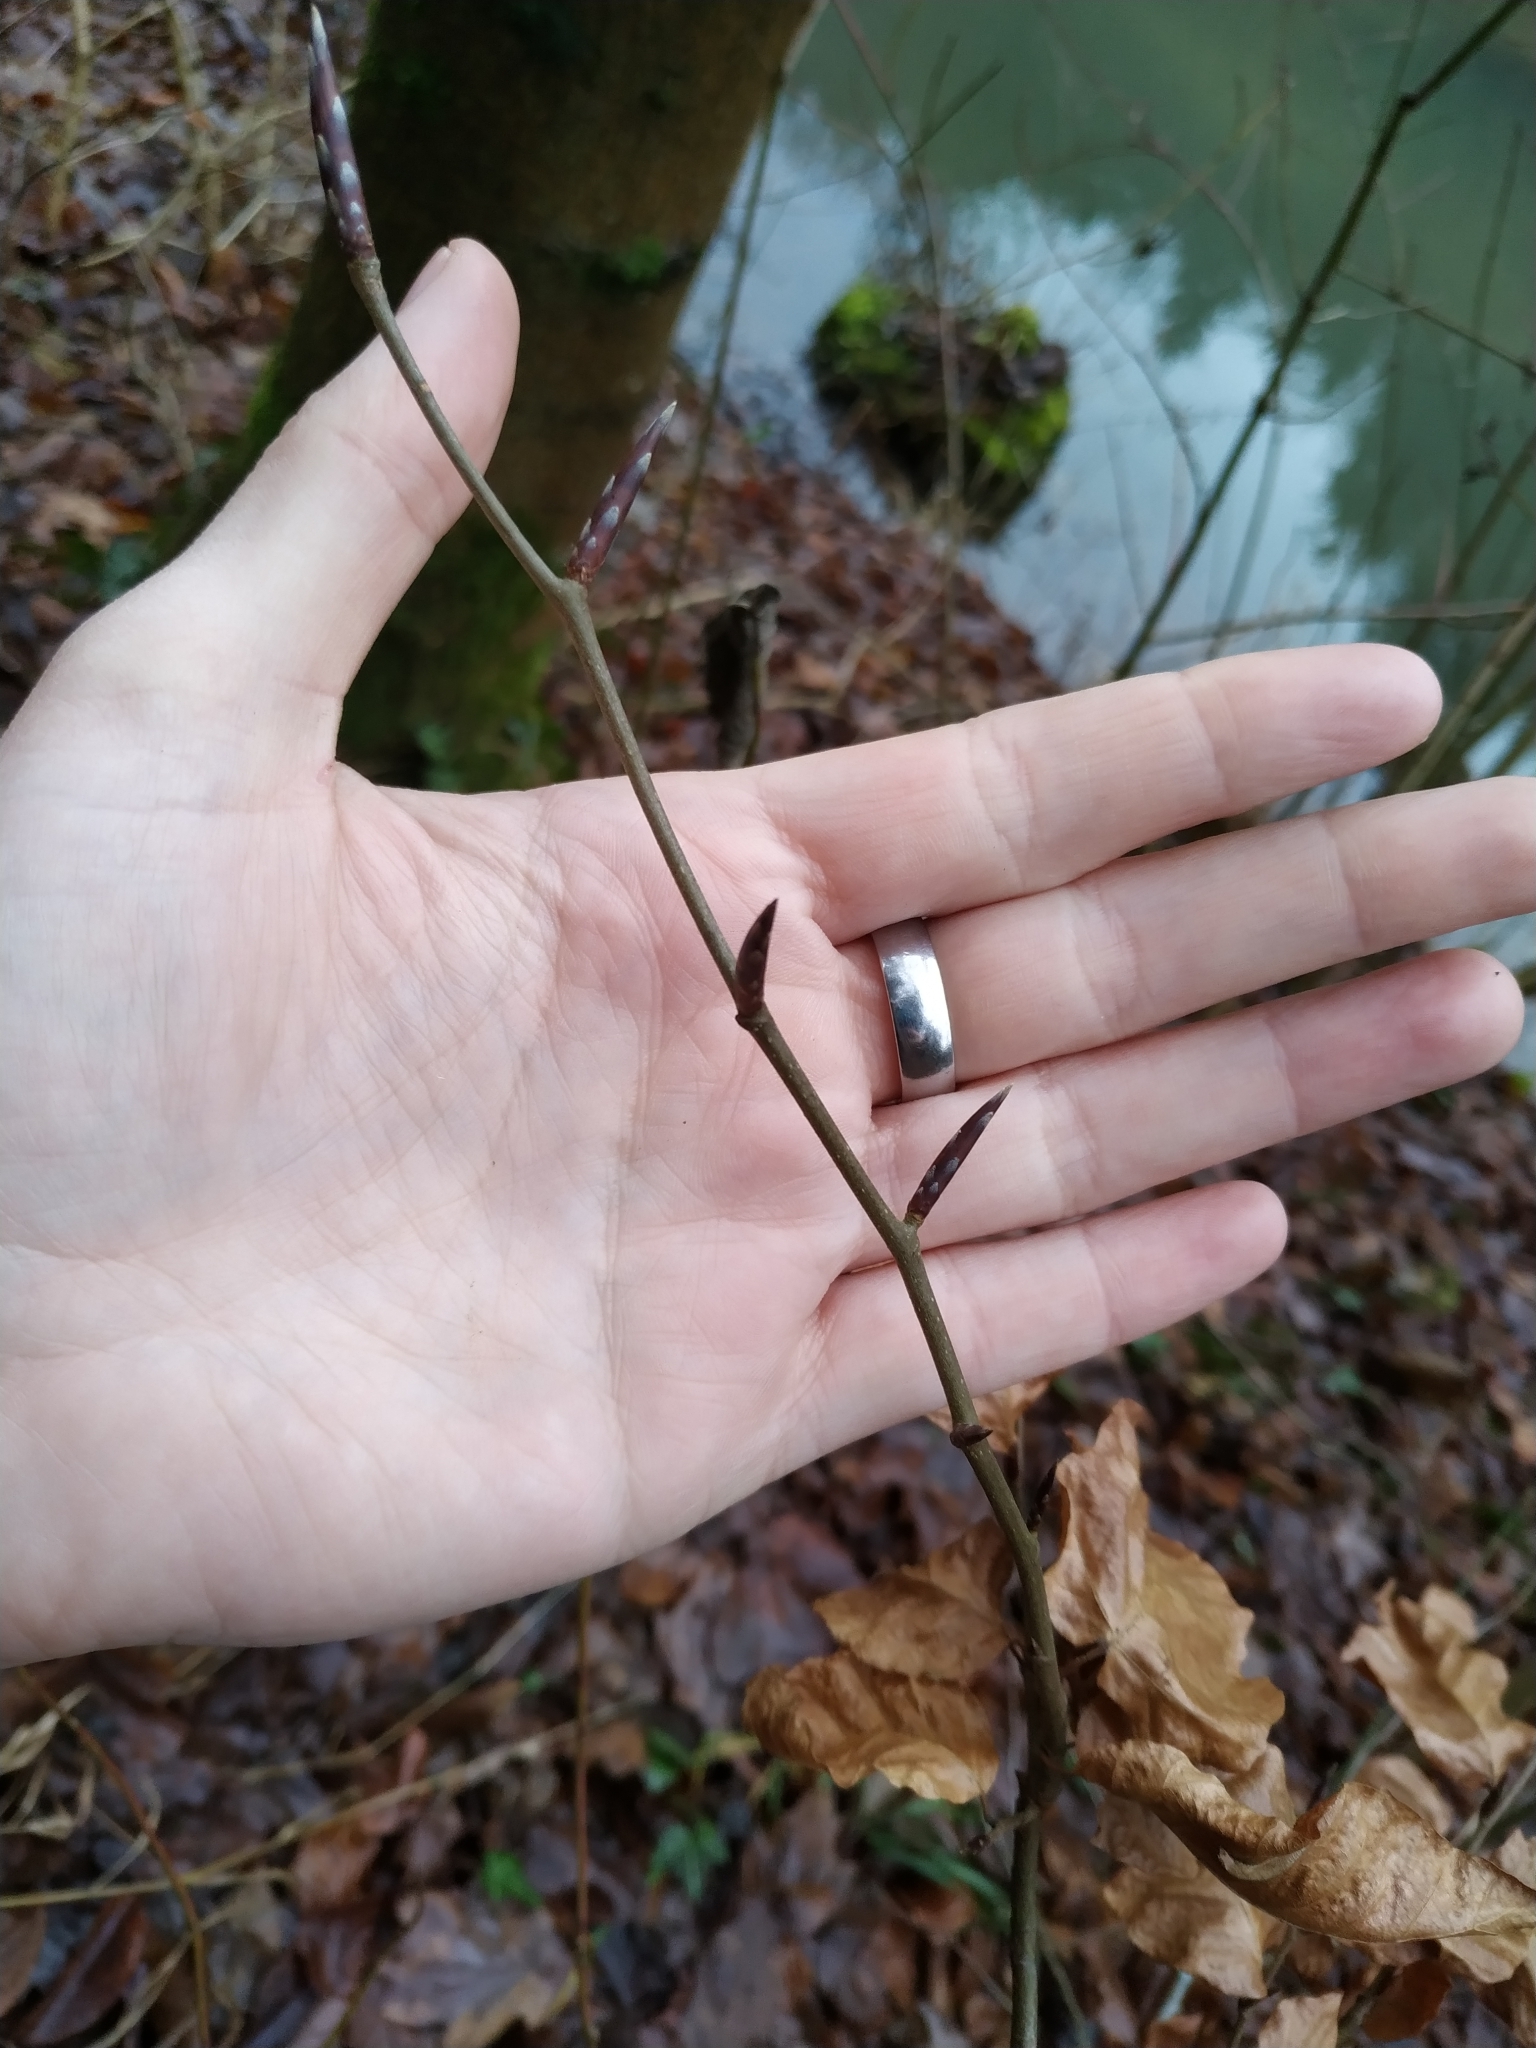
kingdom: Plantae
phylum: Tracheophyta
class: Magnoliopsida
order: Fagales
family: Fagaceae
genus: Fagus
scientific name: Fagus sylvatica
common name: Beech
